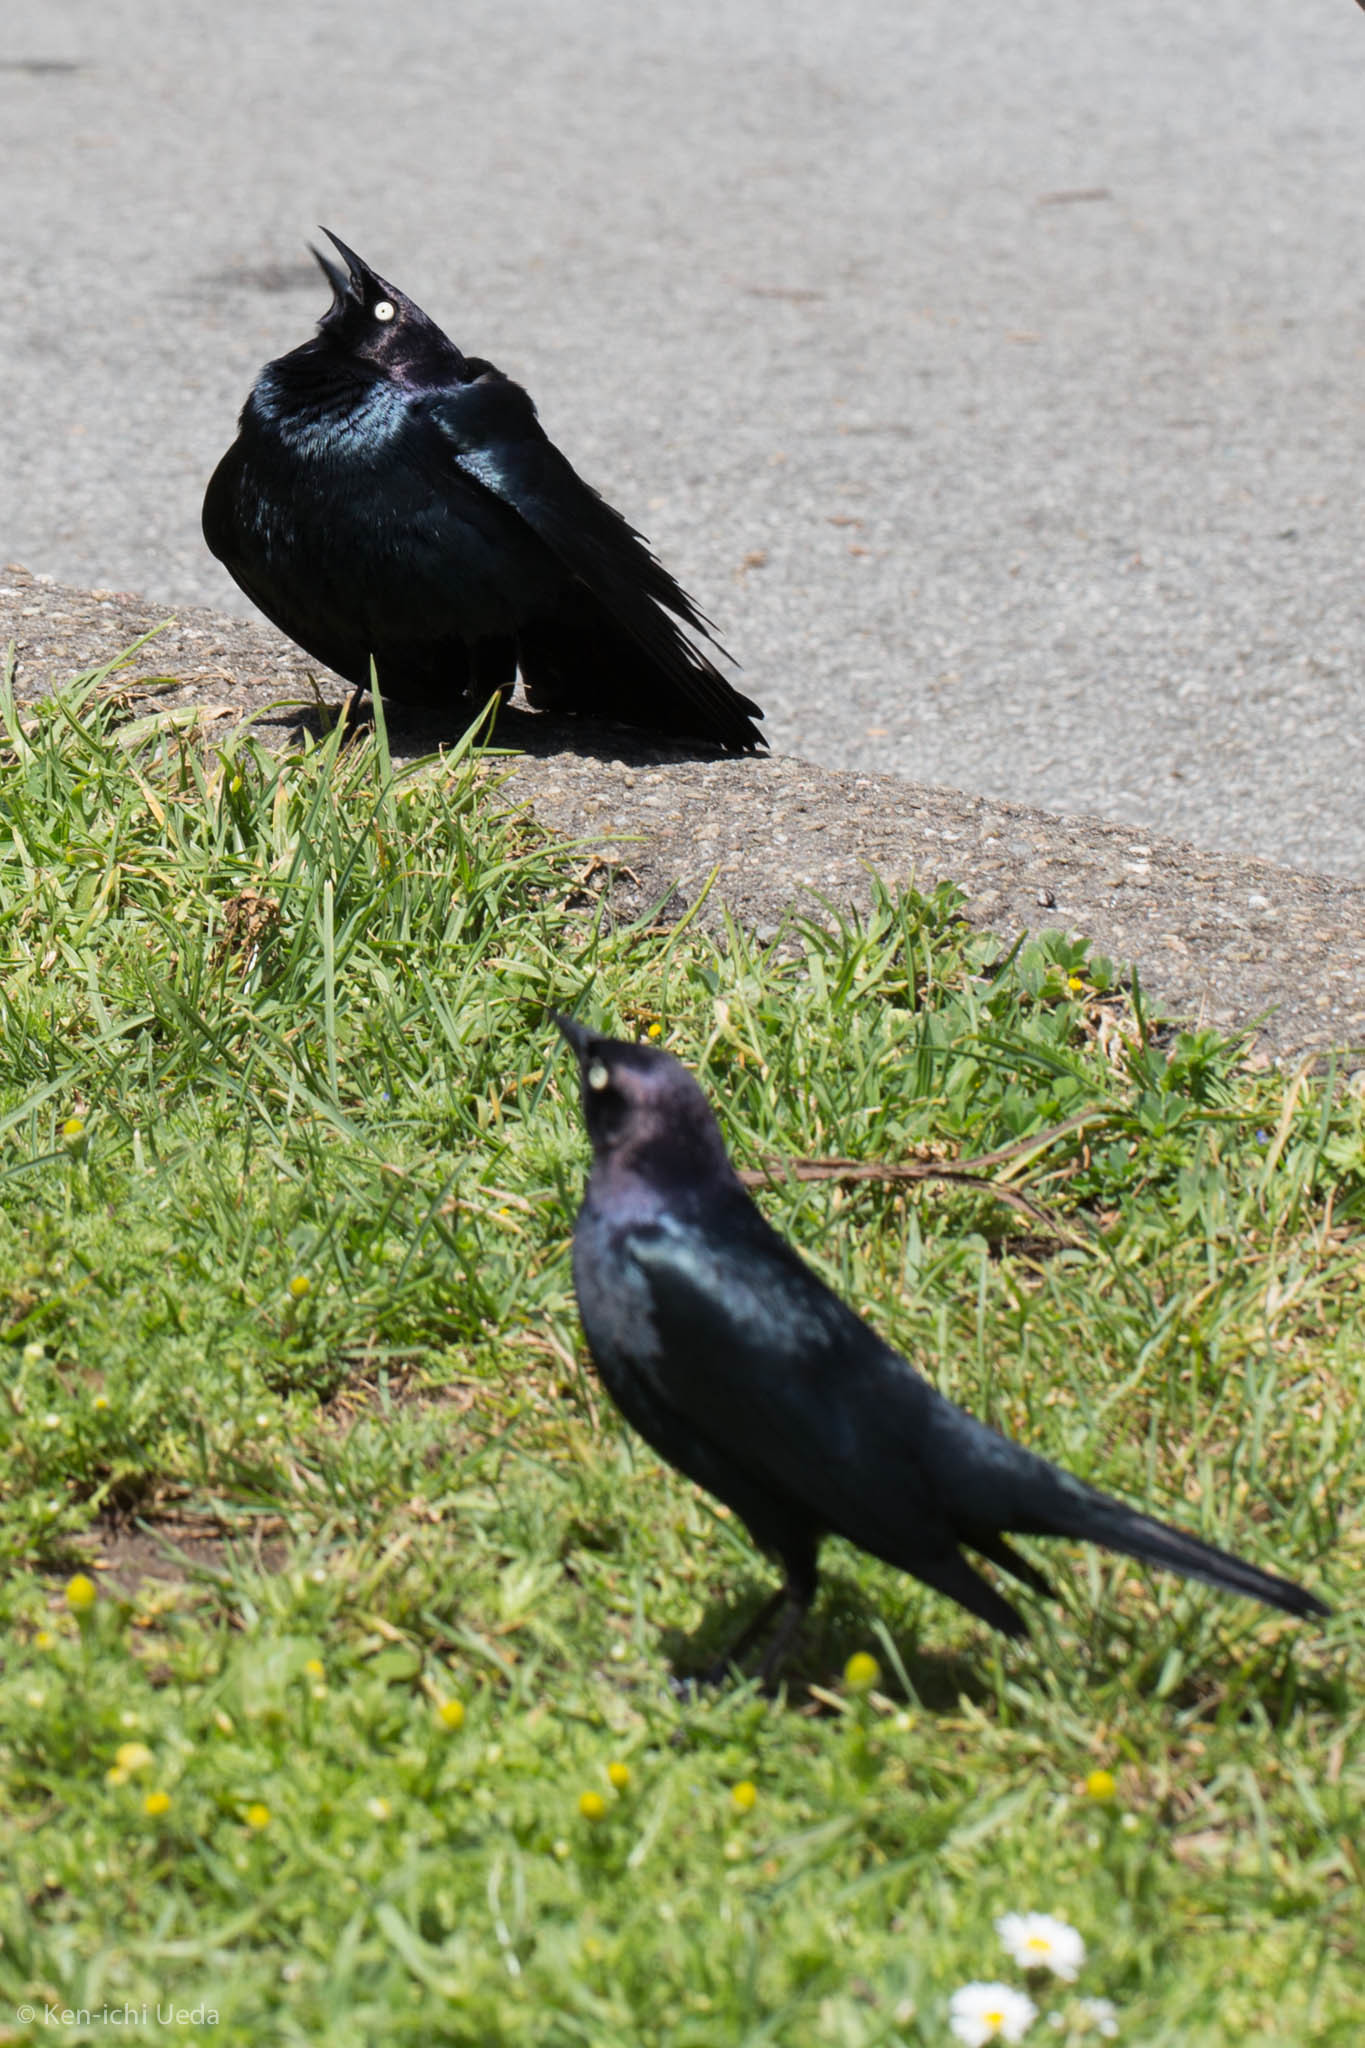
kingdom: Animalia
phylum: Chordata
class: Aves
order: Passeriformes
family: Icteridae
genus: Euphagus
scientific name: Euphagus cyanocephalus
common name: Brewer's blackbird
